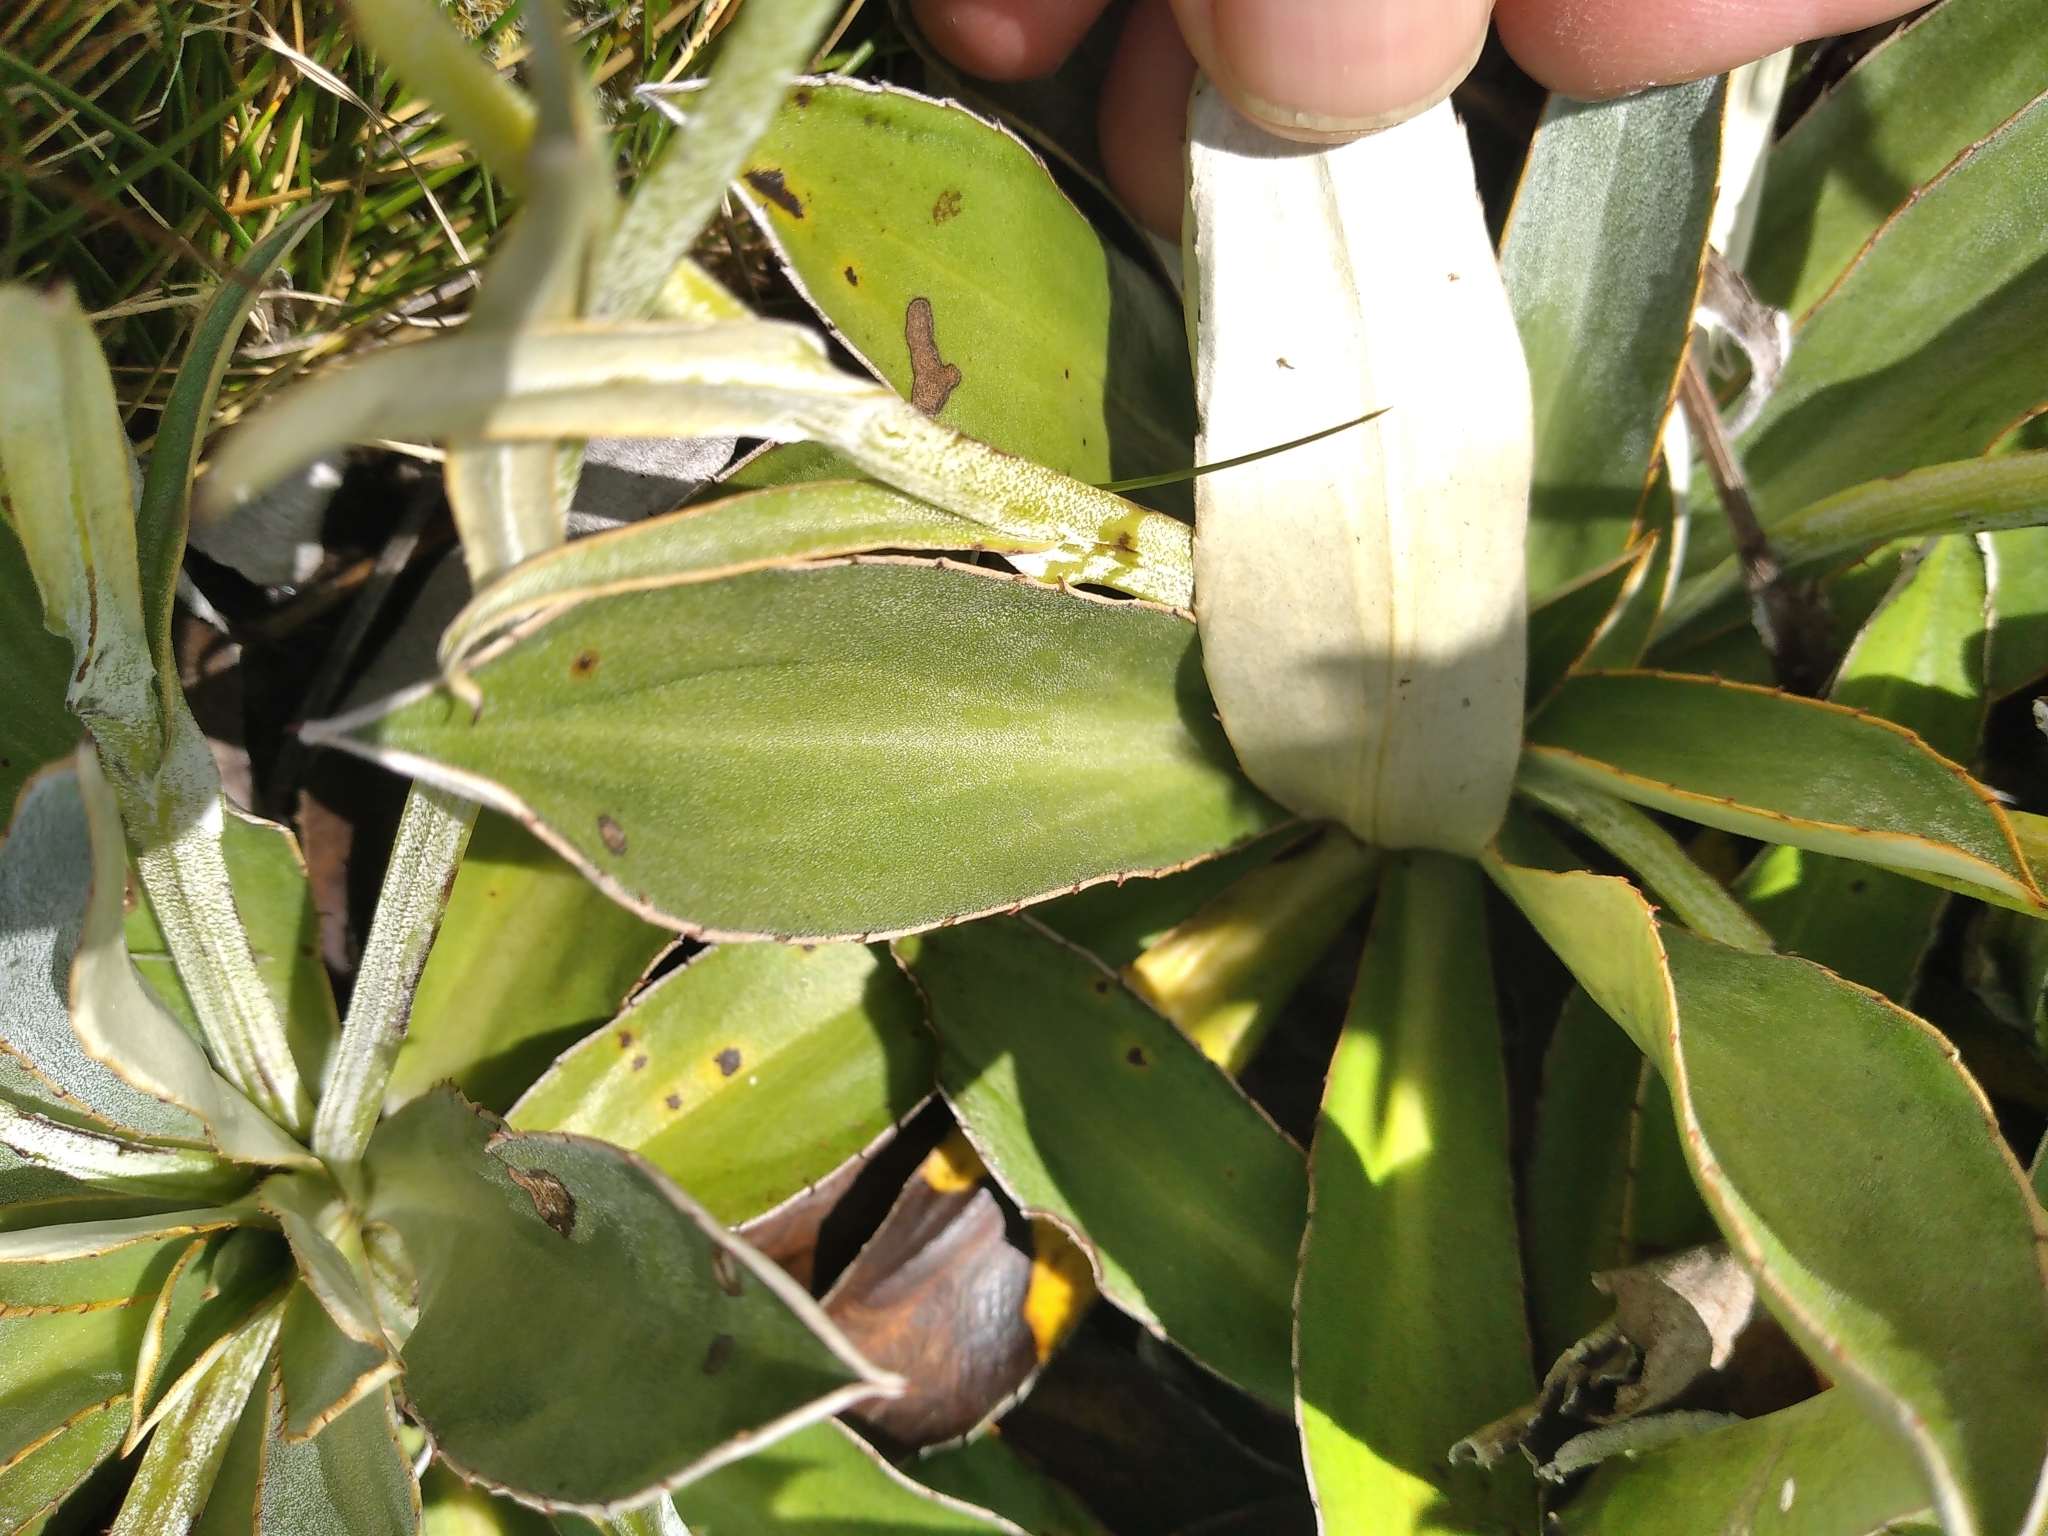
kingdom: Plantae
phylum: Tracheophyta
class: Magnoliopsida
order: Asterales
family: Asteraceae
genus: Celmisia
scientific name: Celmisia dallii
